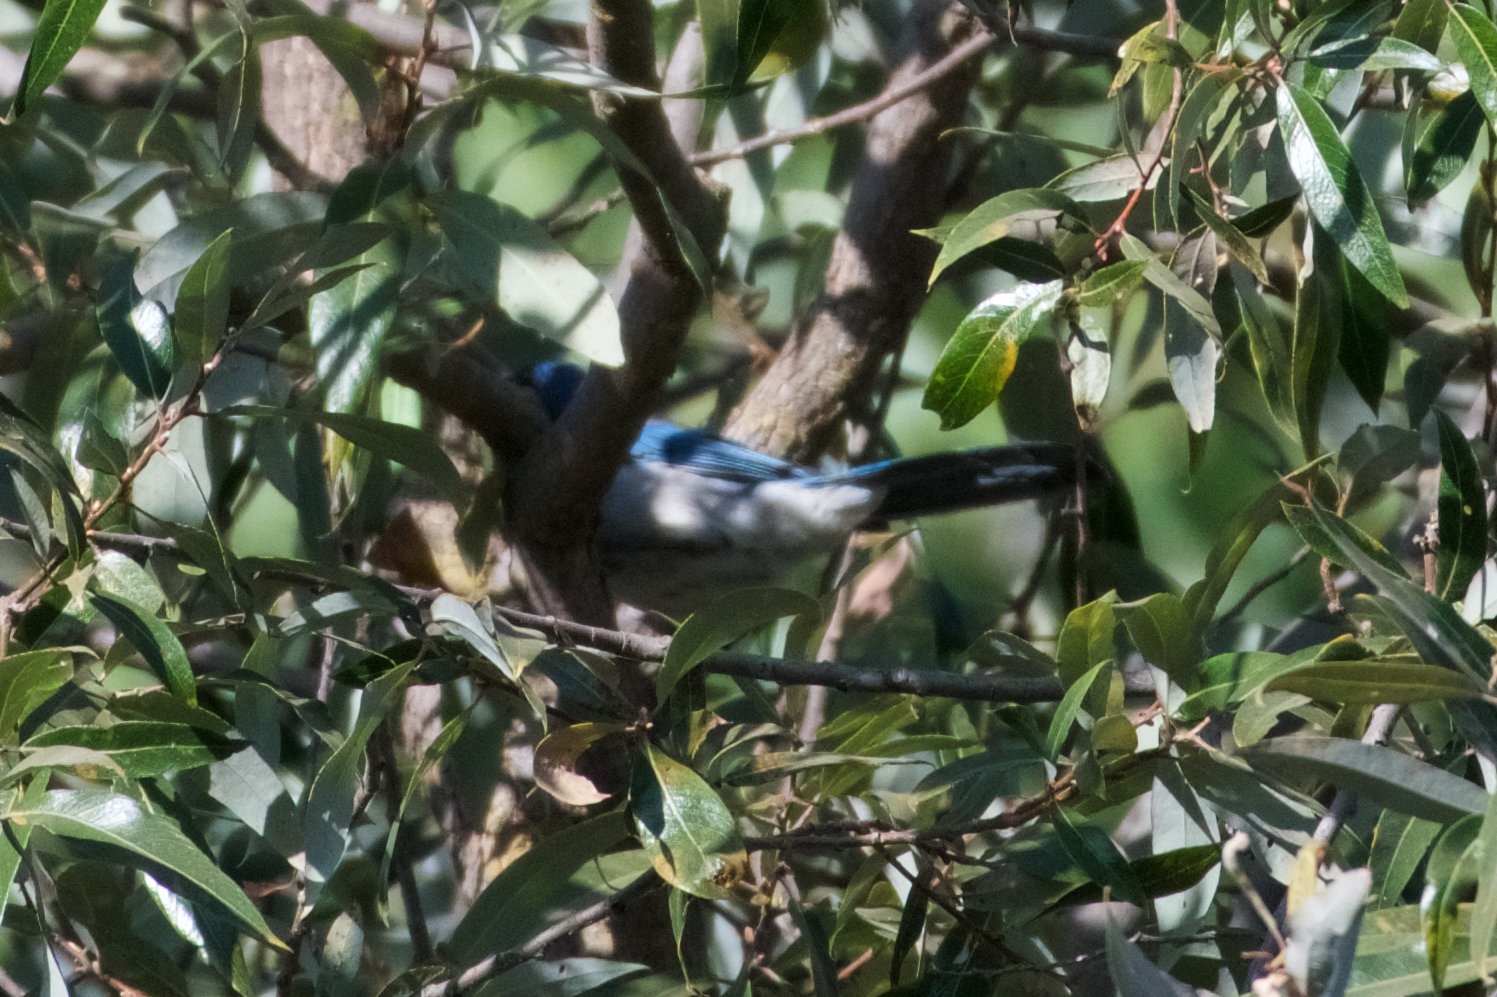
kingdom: Animalia
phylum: Chordata
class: Aves
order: Passeriformes
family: Corvidae
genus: Aphelocoma
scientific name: Aphelocoma californica
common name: California scrub-jay
